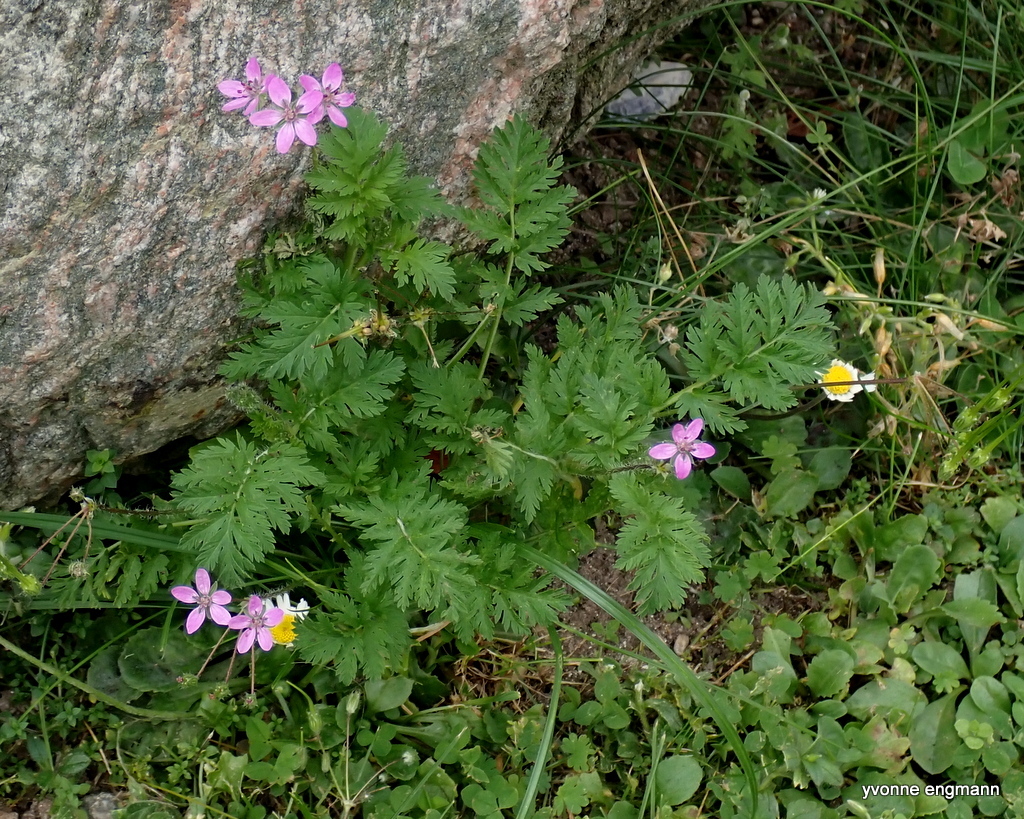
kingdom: Plantae
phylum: Tracheophyta
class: Magnoliopsida
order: Geraniales
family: Geraniaceae
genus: Erodium
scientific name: Erodium cicutarium
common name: Common stork's-bill
